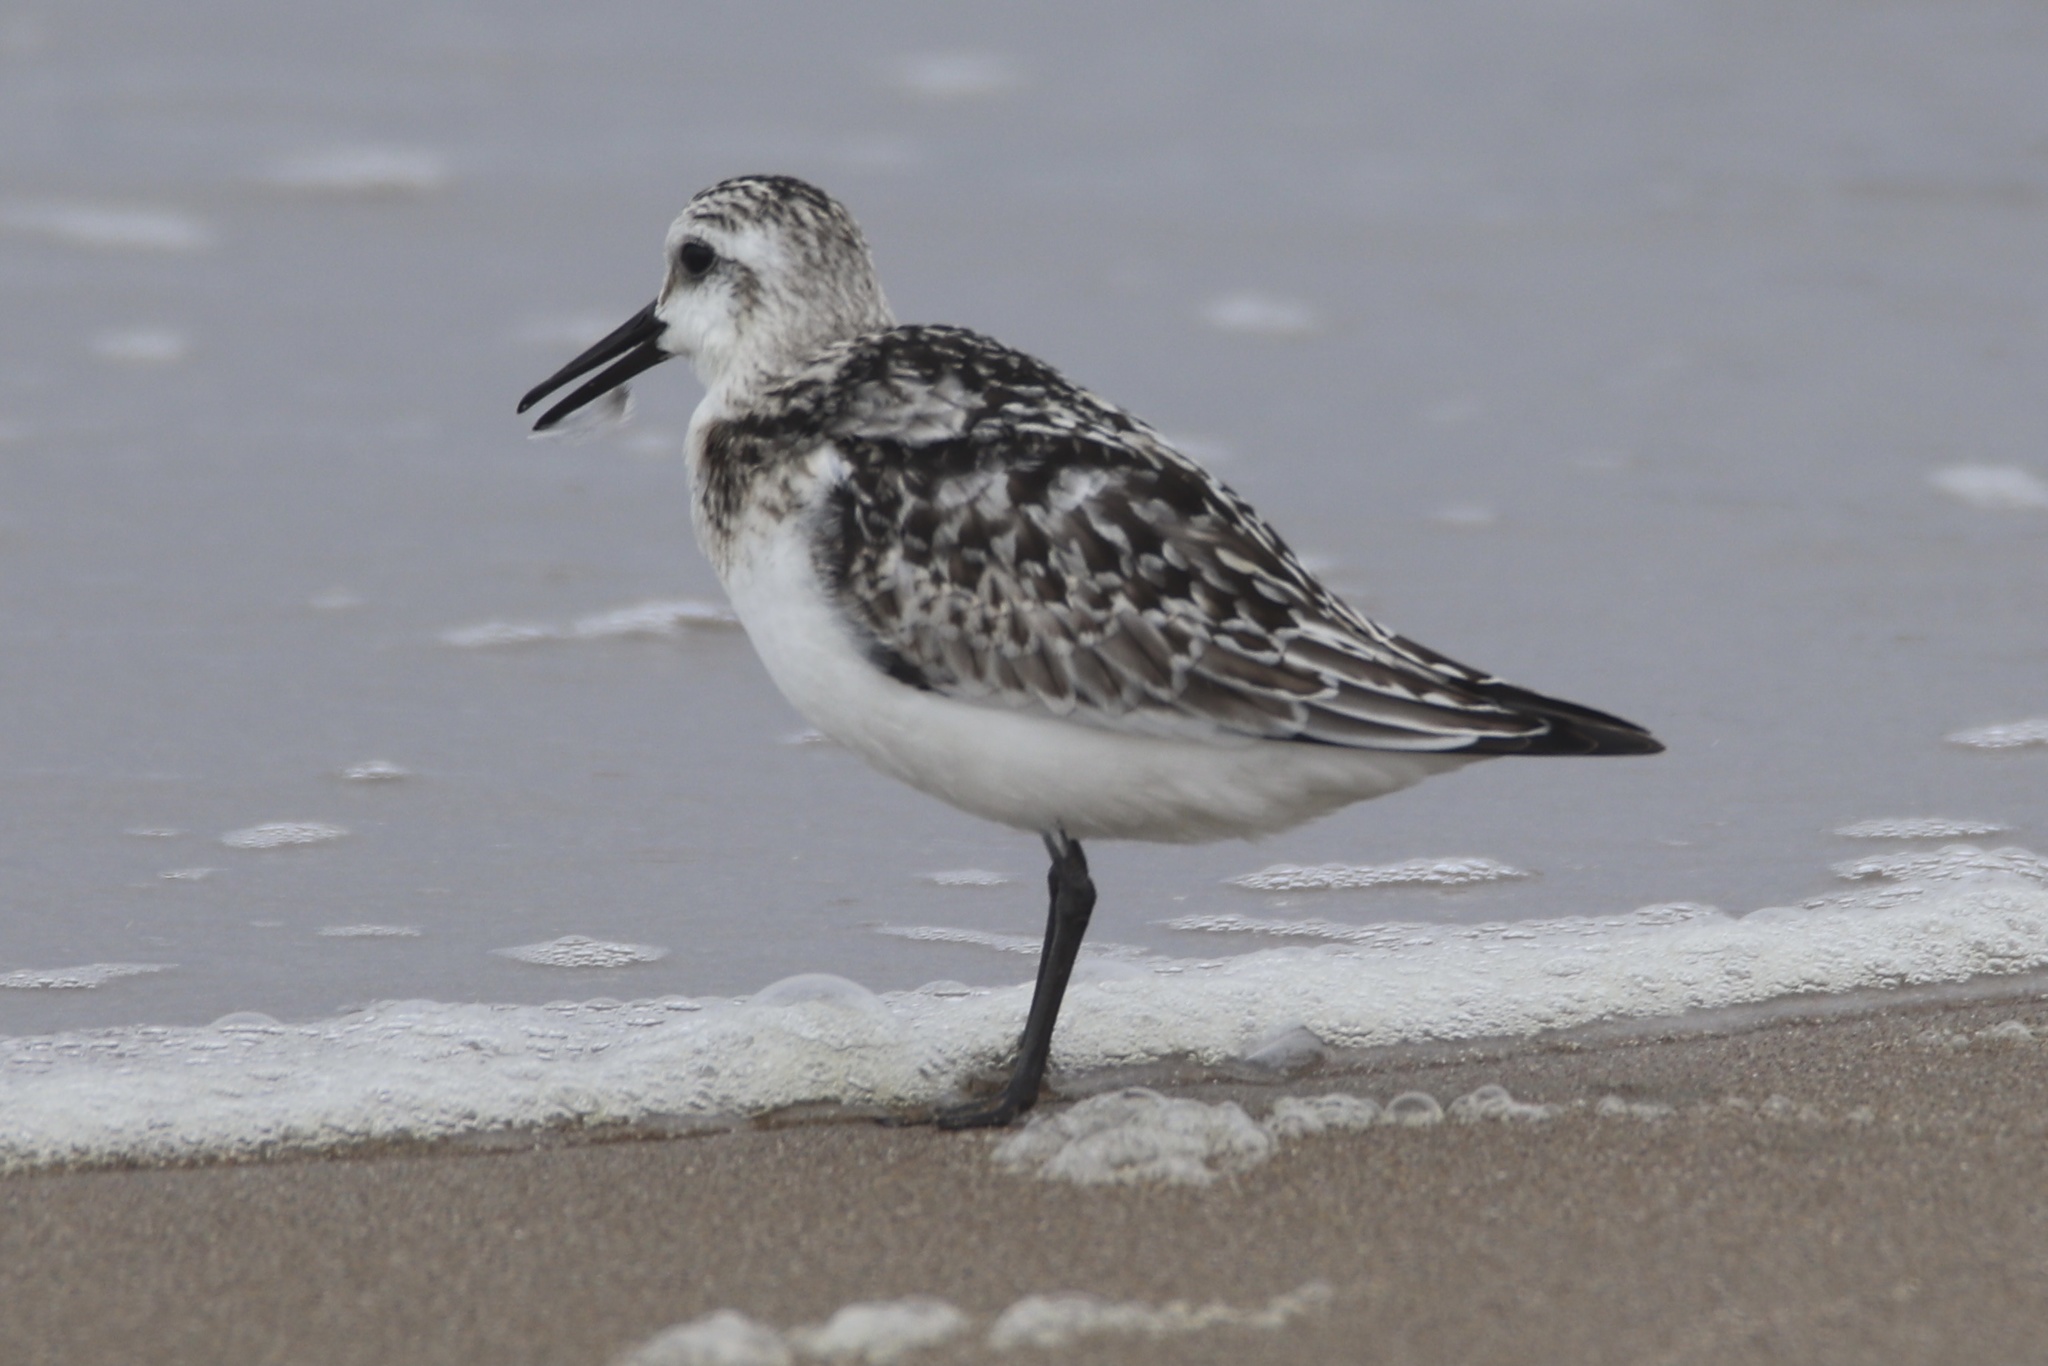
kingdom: Animalia
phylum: Chordata
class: Aves
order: Charadriiformes
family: Scolopacidae
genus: Calidris
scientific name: Calidris alba
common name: Sanderling
